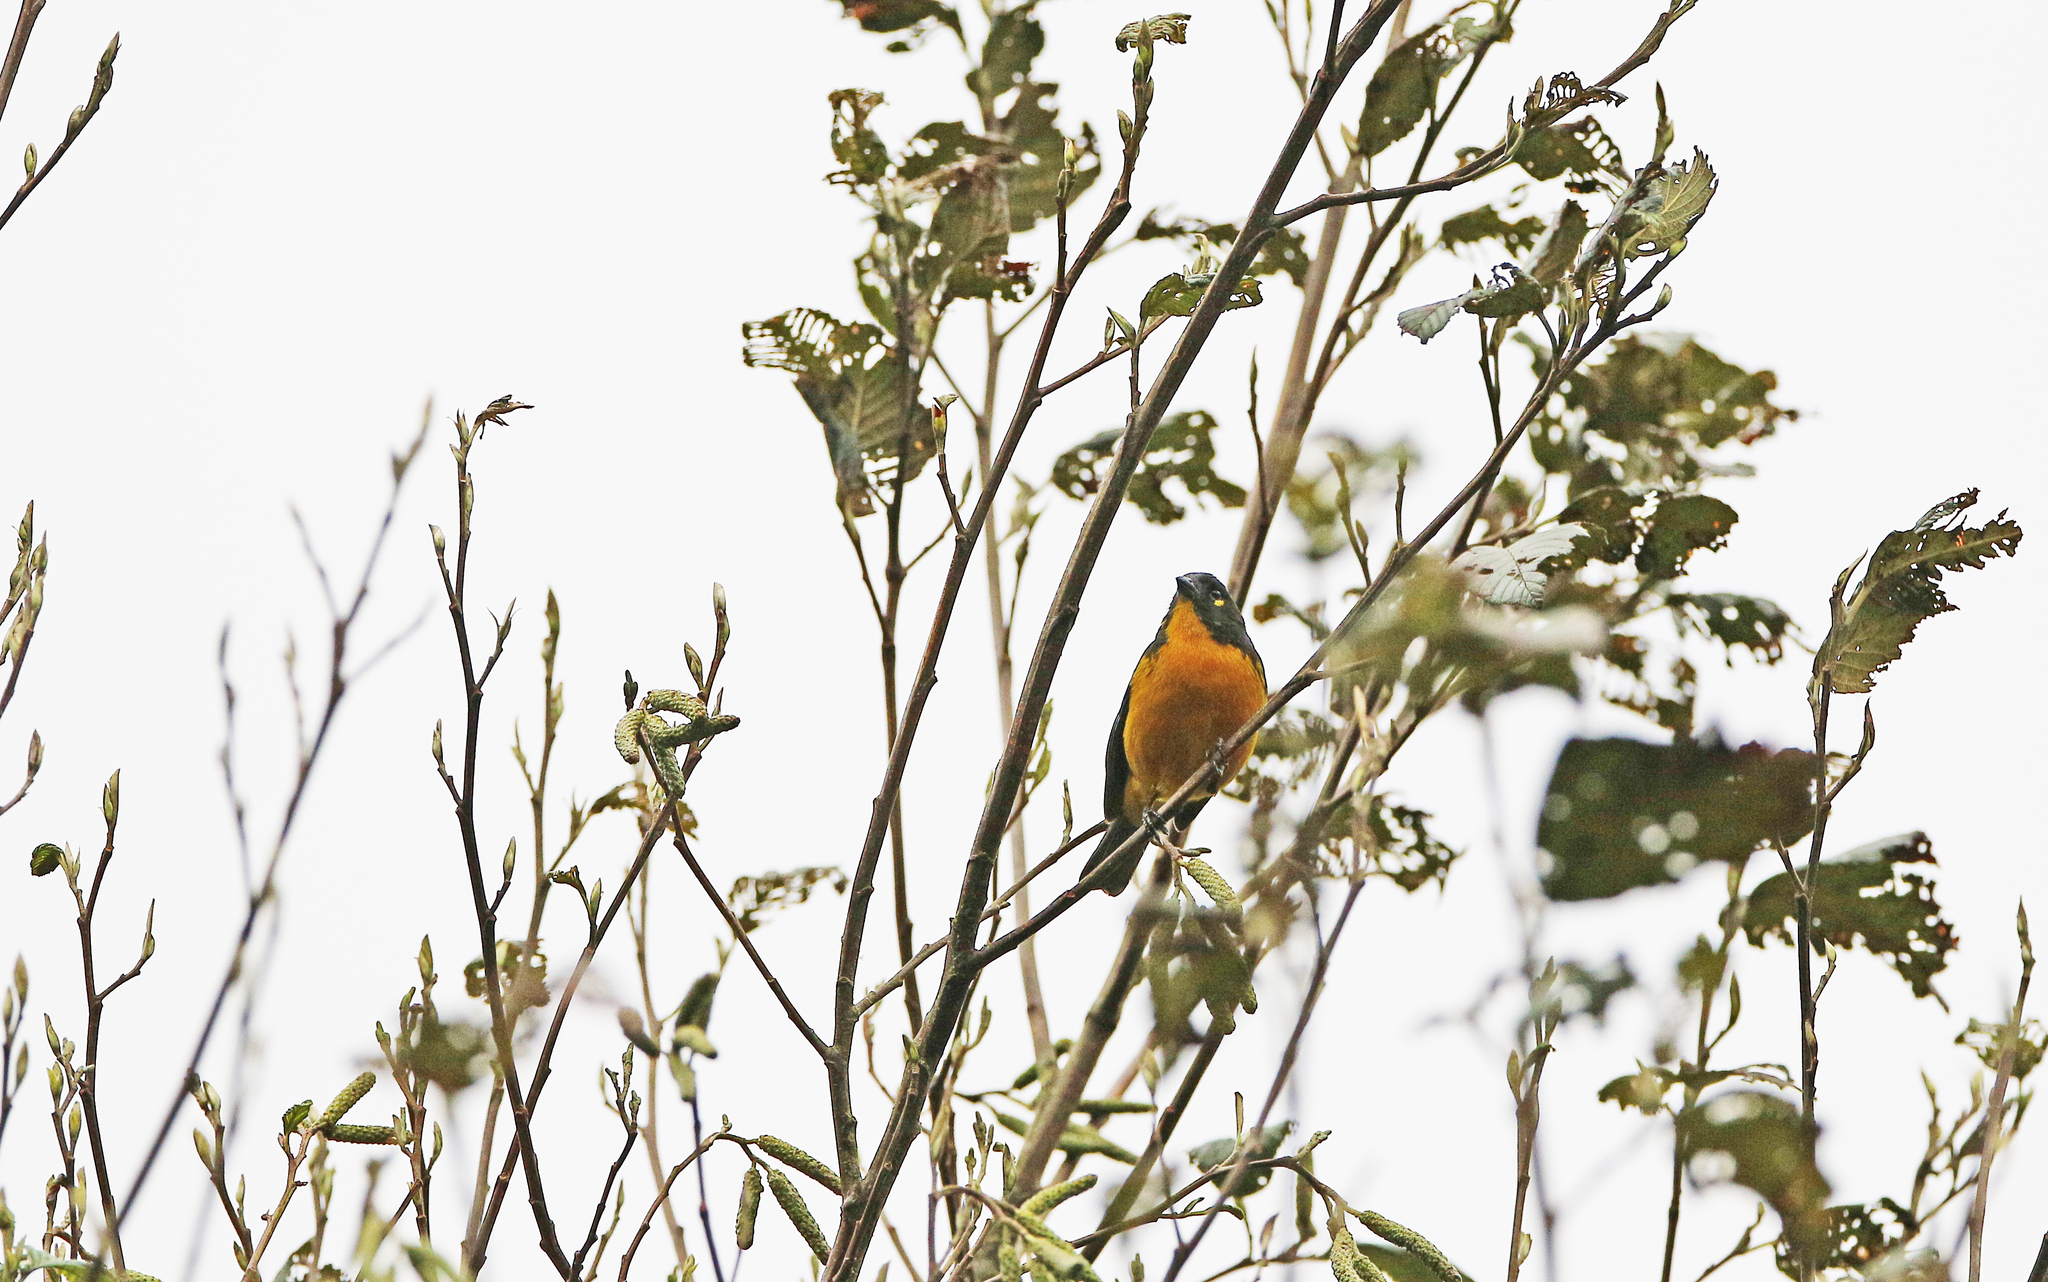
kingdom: Animalia
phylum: Chordata
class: Aves
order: Passeriformes
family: Thraupidae
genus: Anisognathus
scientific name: Anisognathus lacrymosus
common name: Lacrimose mountain-tanager
